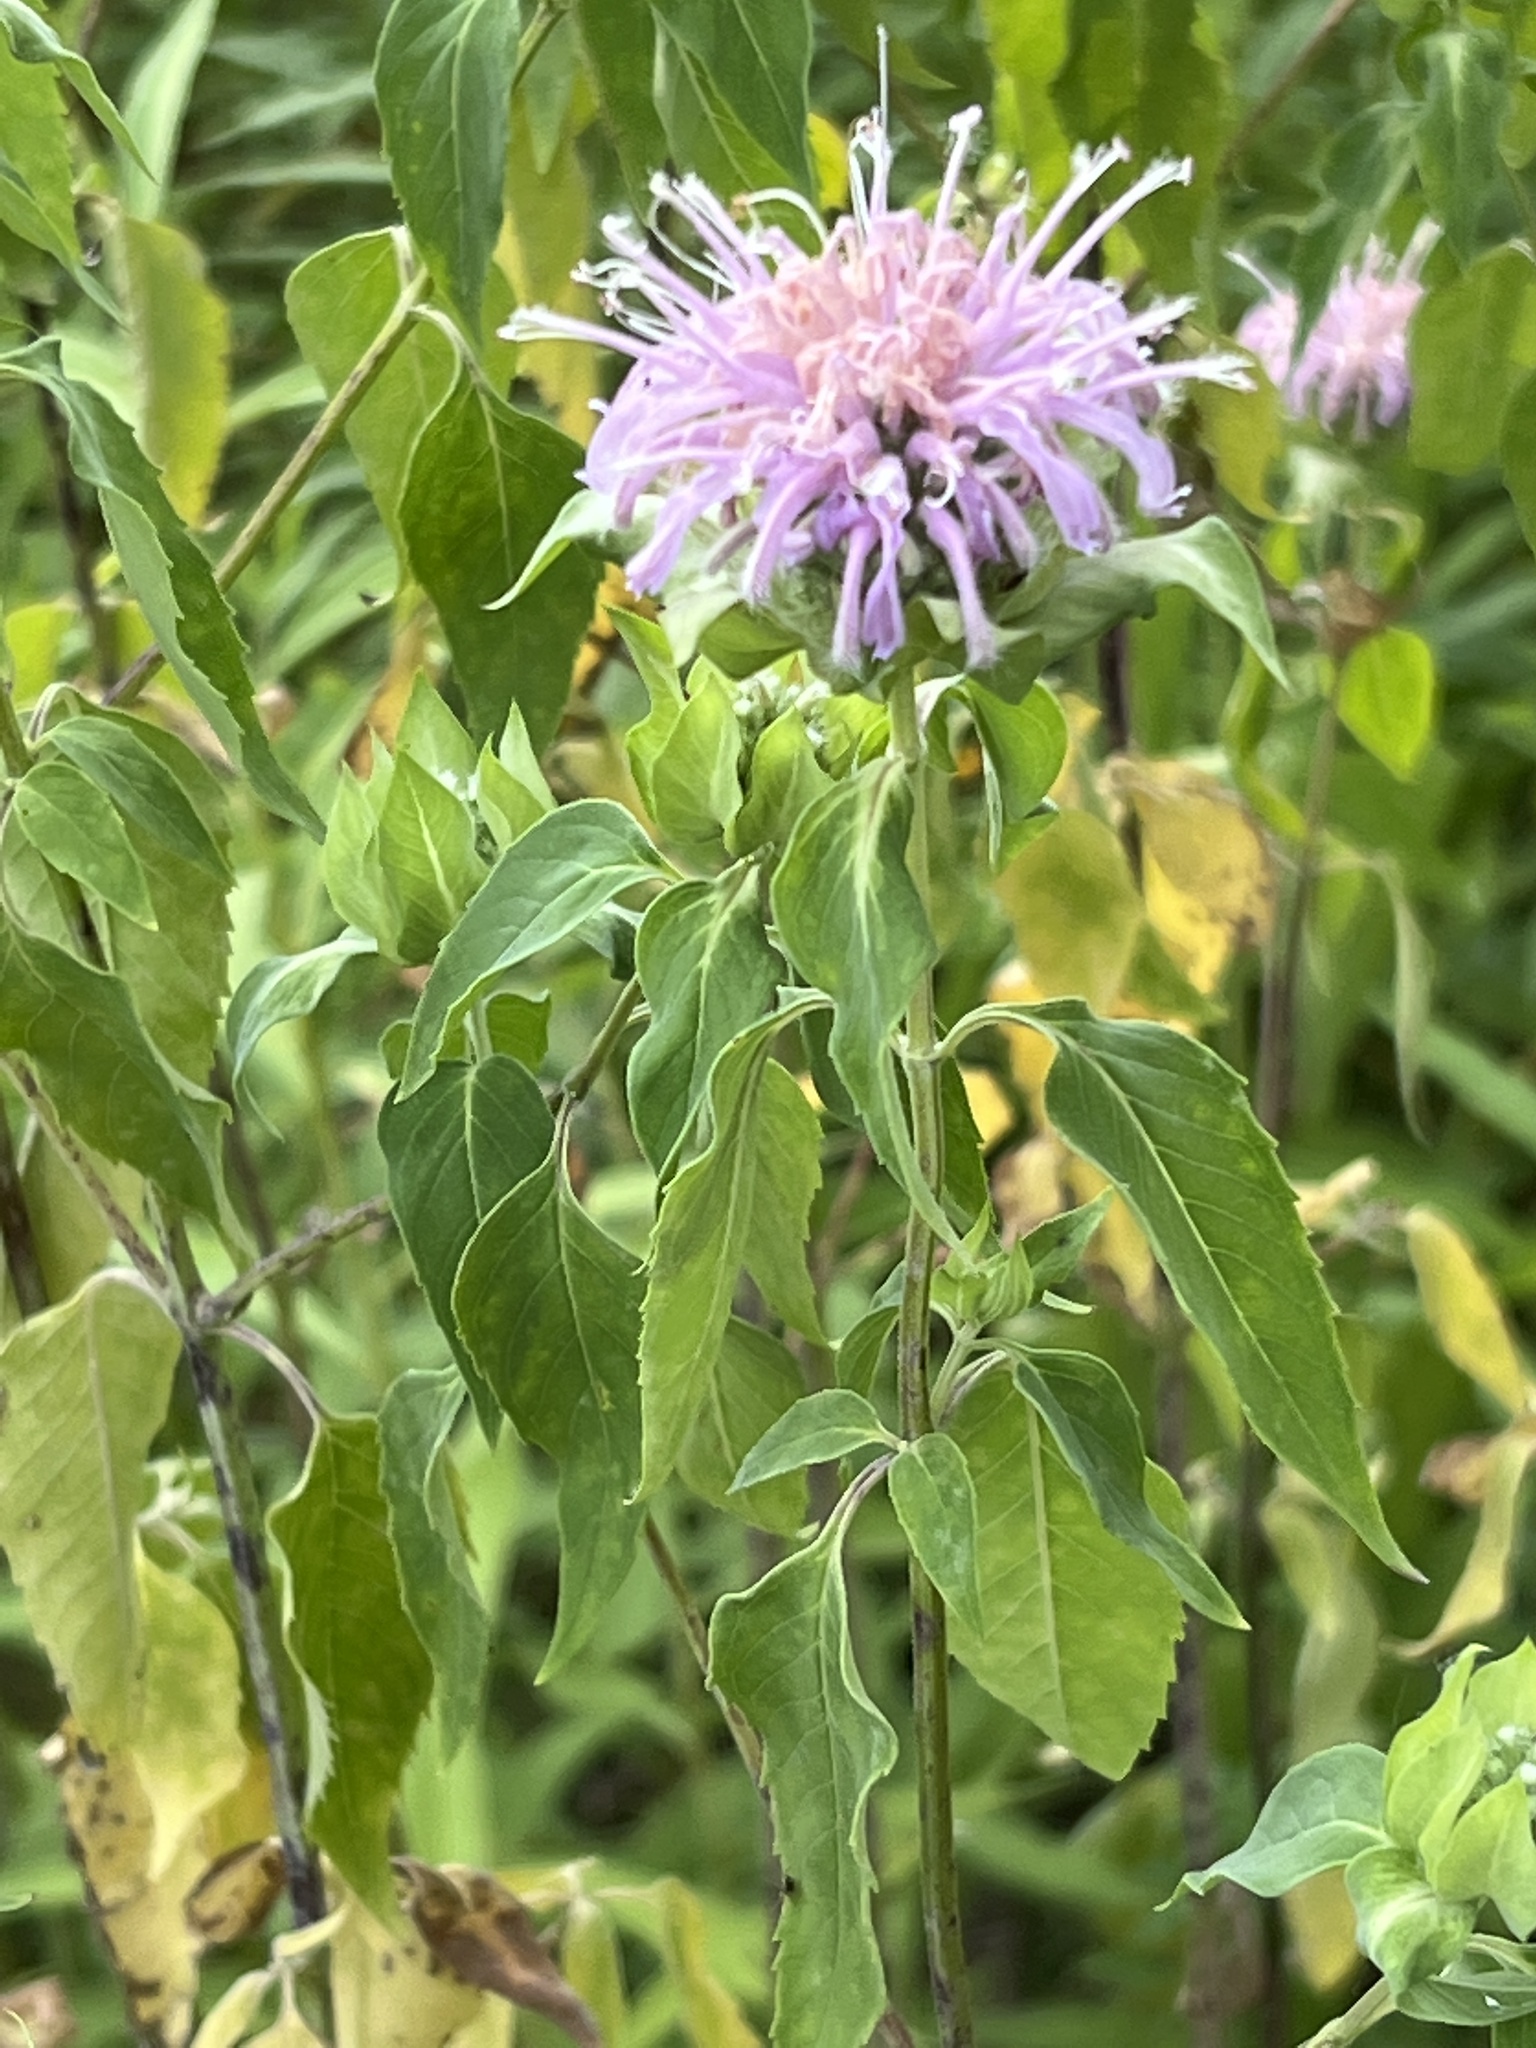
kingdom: Plantae
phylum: Tracheophyta
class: Magnoliopsida
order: Lamiales
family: Lamiaceae
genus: Monarda
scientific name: Monarda fistulosa
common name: Purple beebalm
